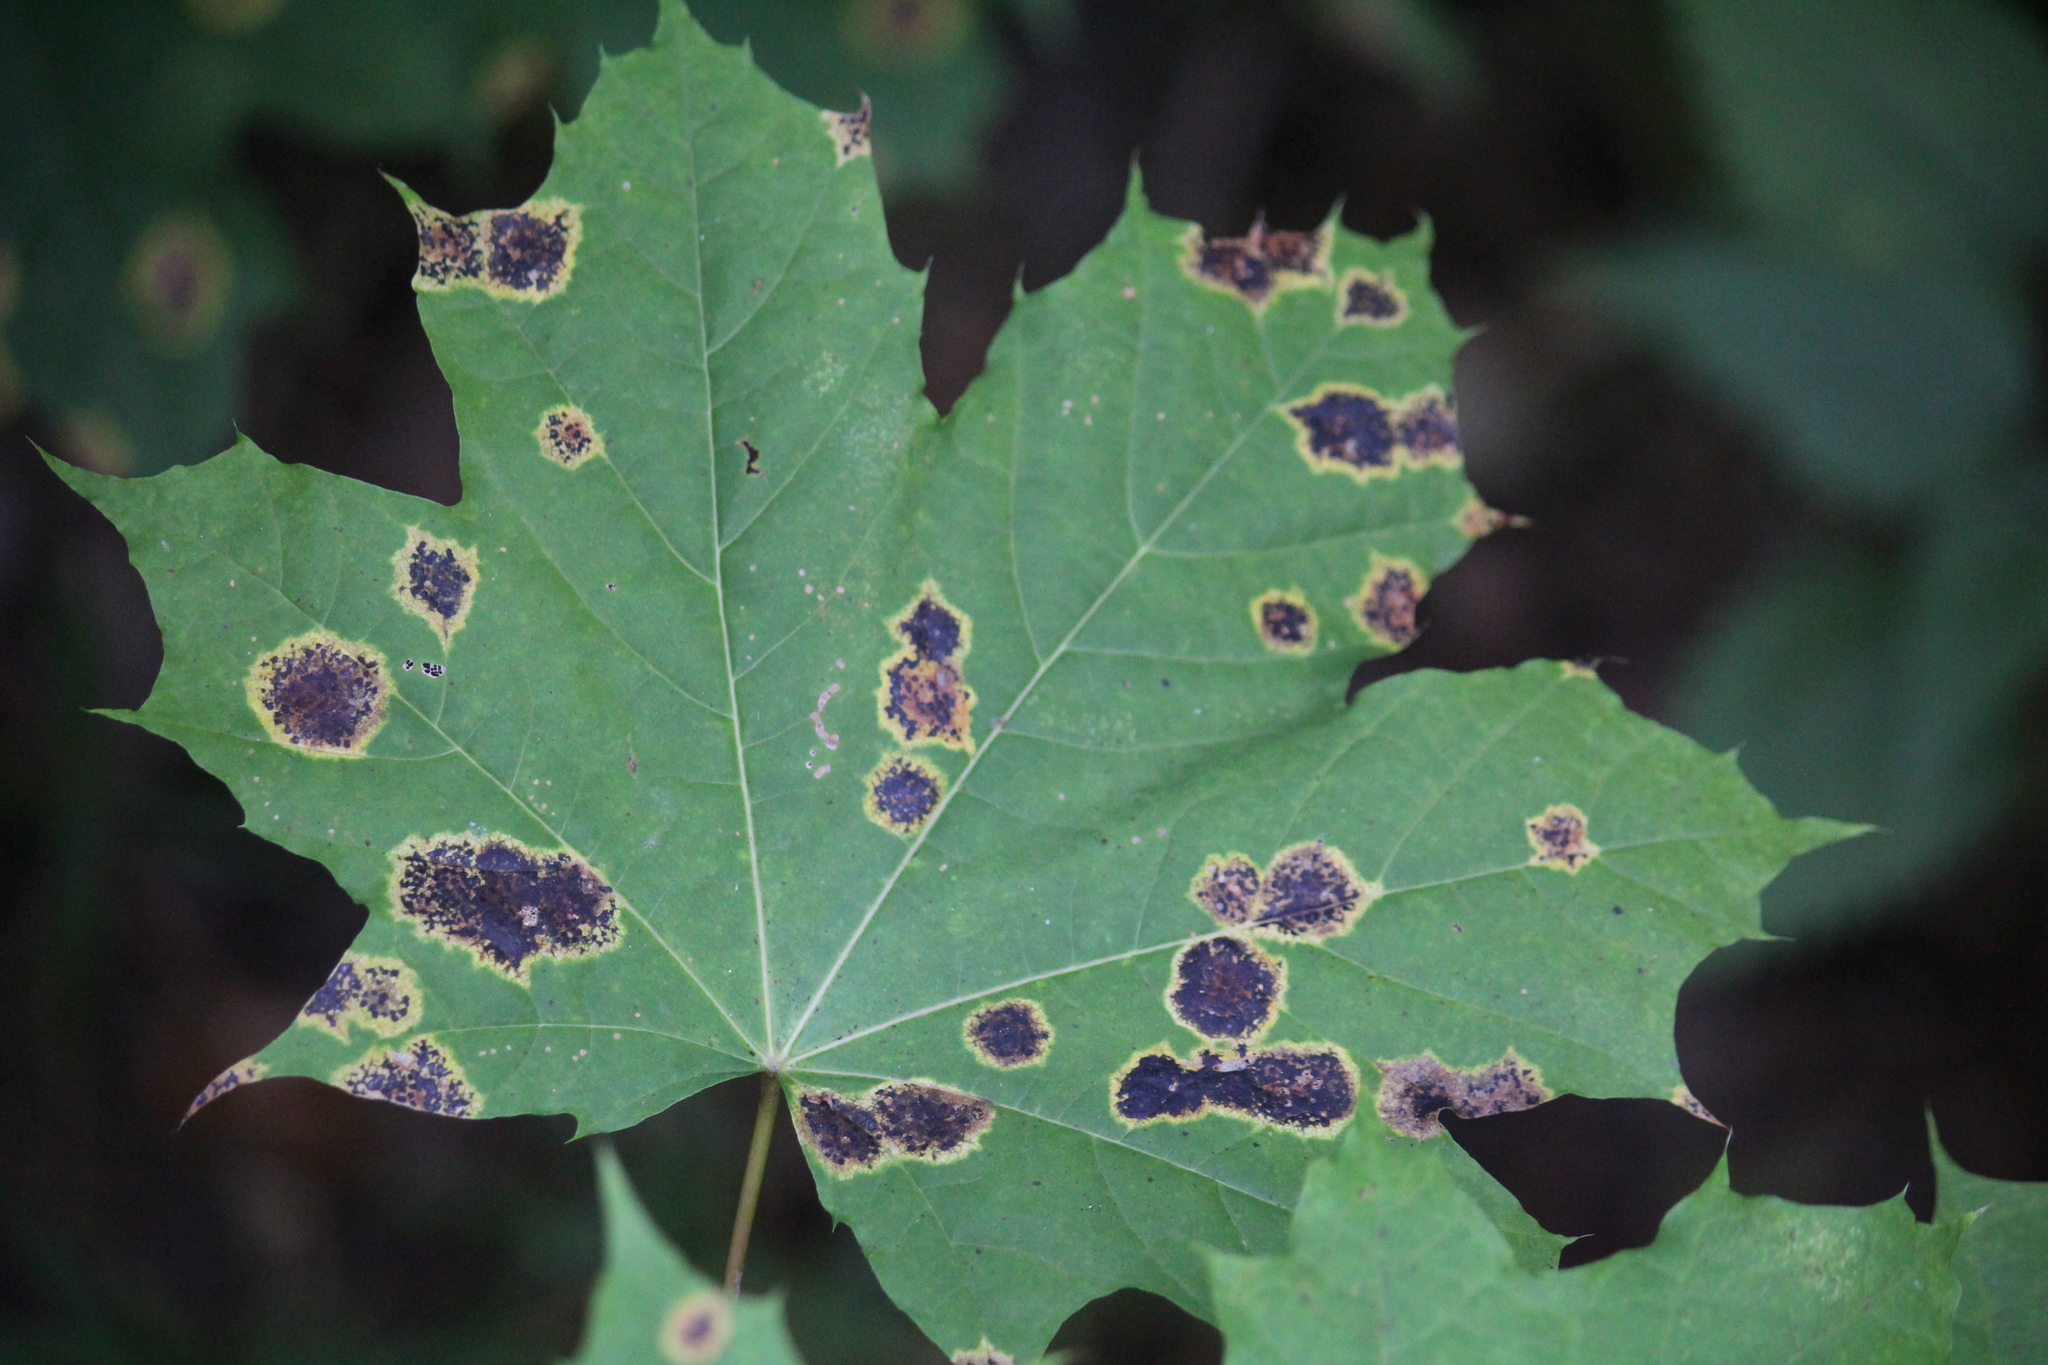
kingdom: Fungi
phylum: Ascomycota
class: Leotiomycetes
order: Rhytismatales
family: Rhytismataceae
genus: Rhytisma
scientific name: Rhytisma acerinum
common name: European tar spot
